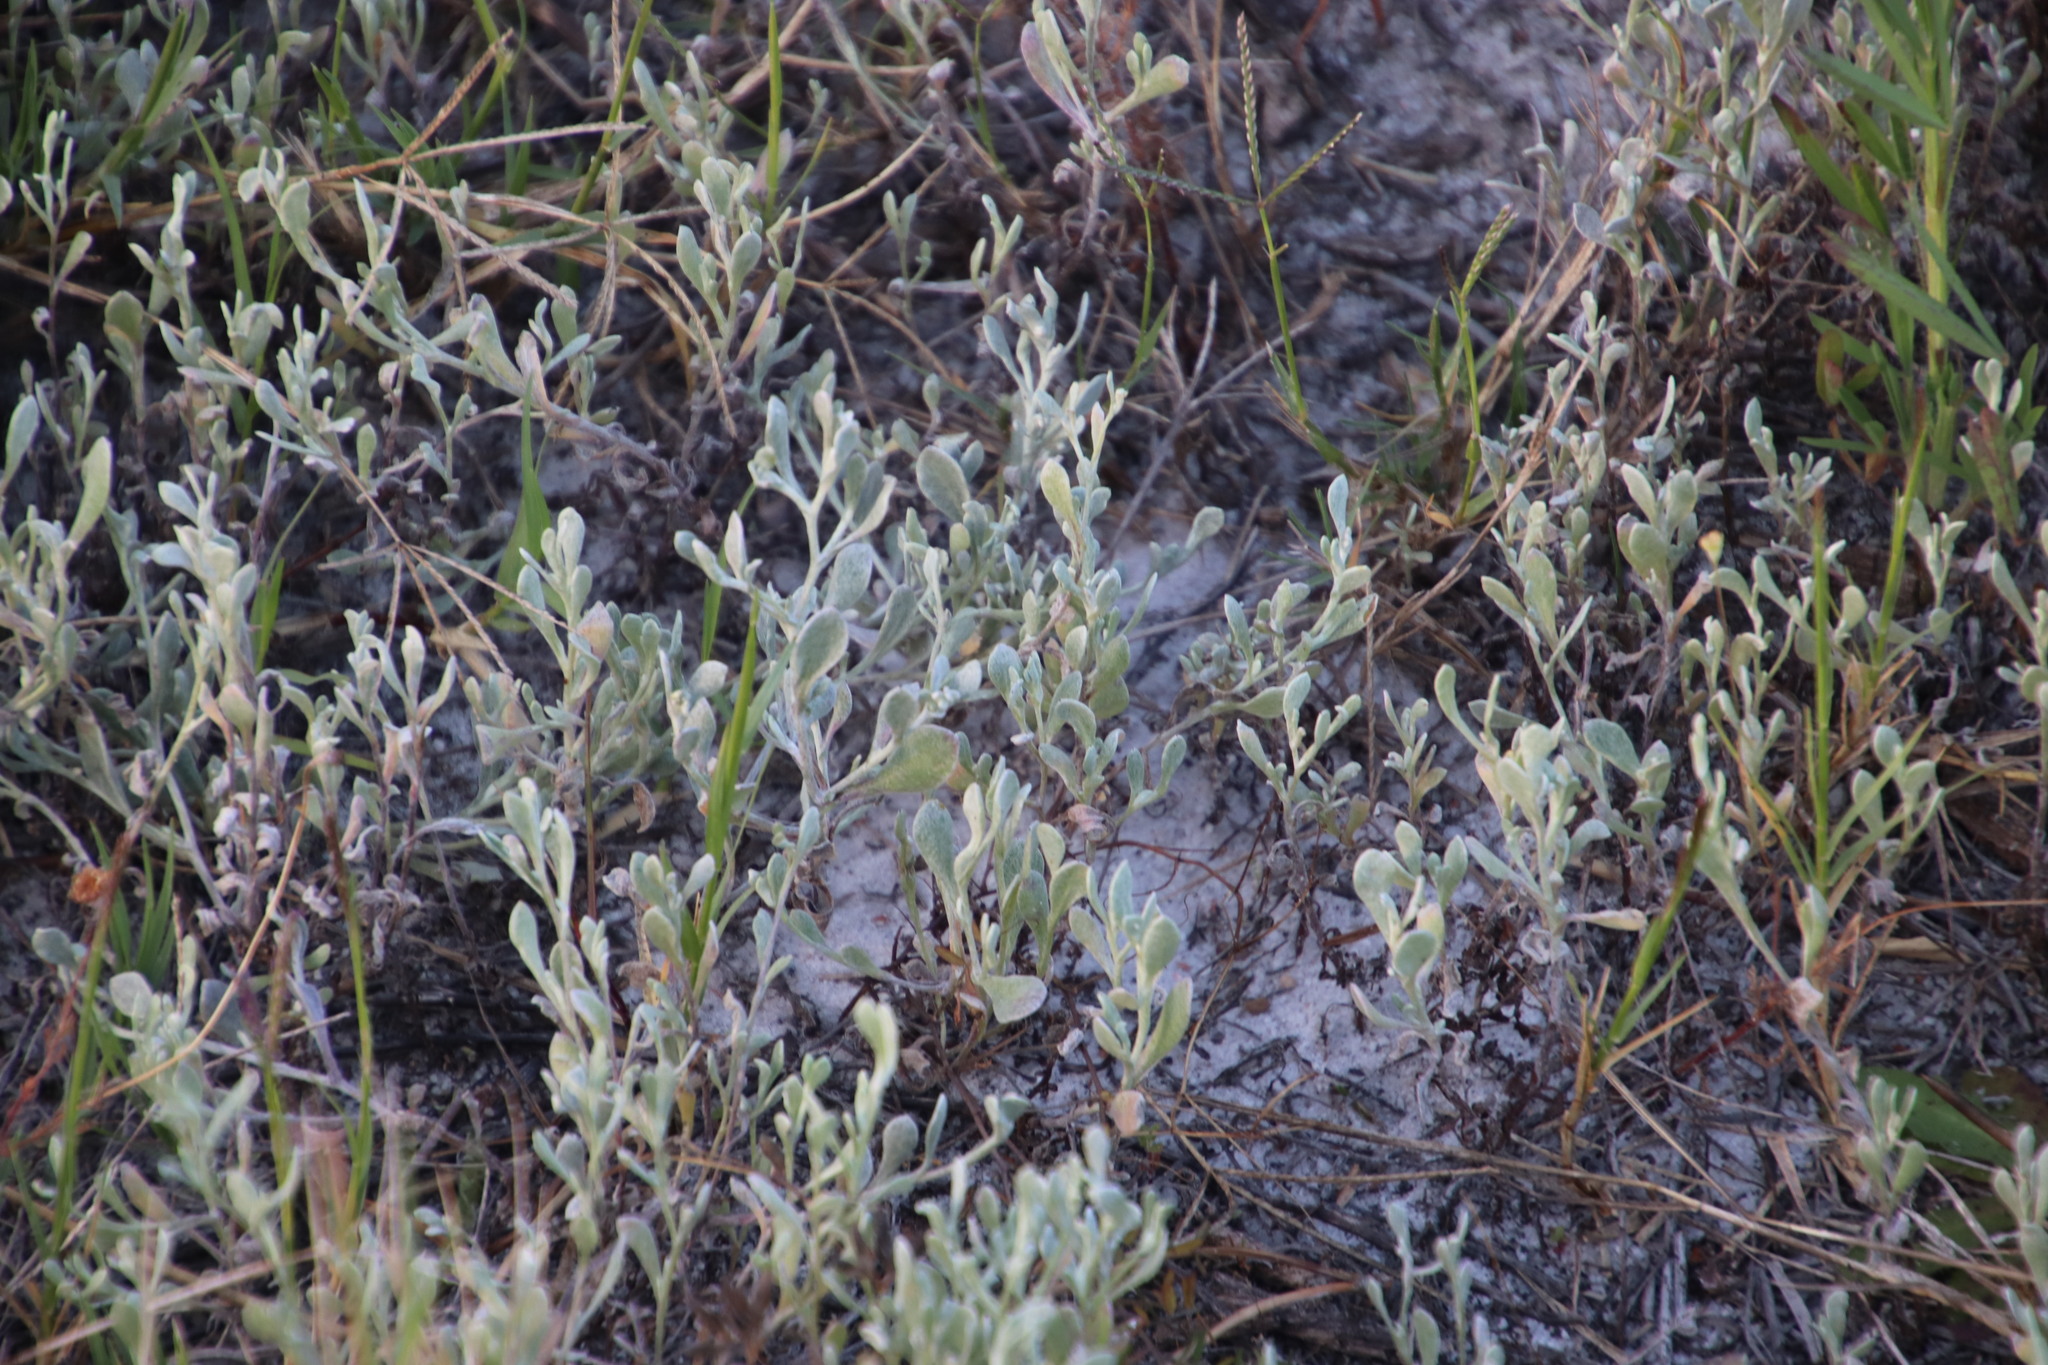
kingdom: Plantae
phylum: Tracheophyta
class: Magnoliopsida
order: Asterales
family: Asteraceae
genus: Helichrysum
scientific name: Helichrysum indicum
